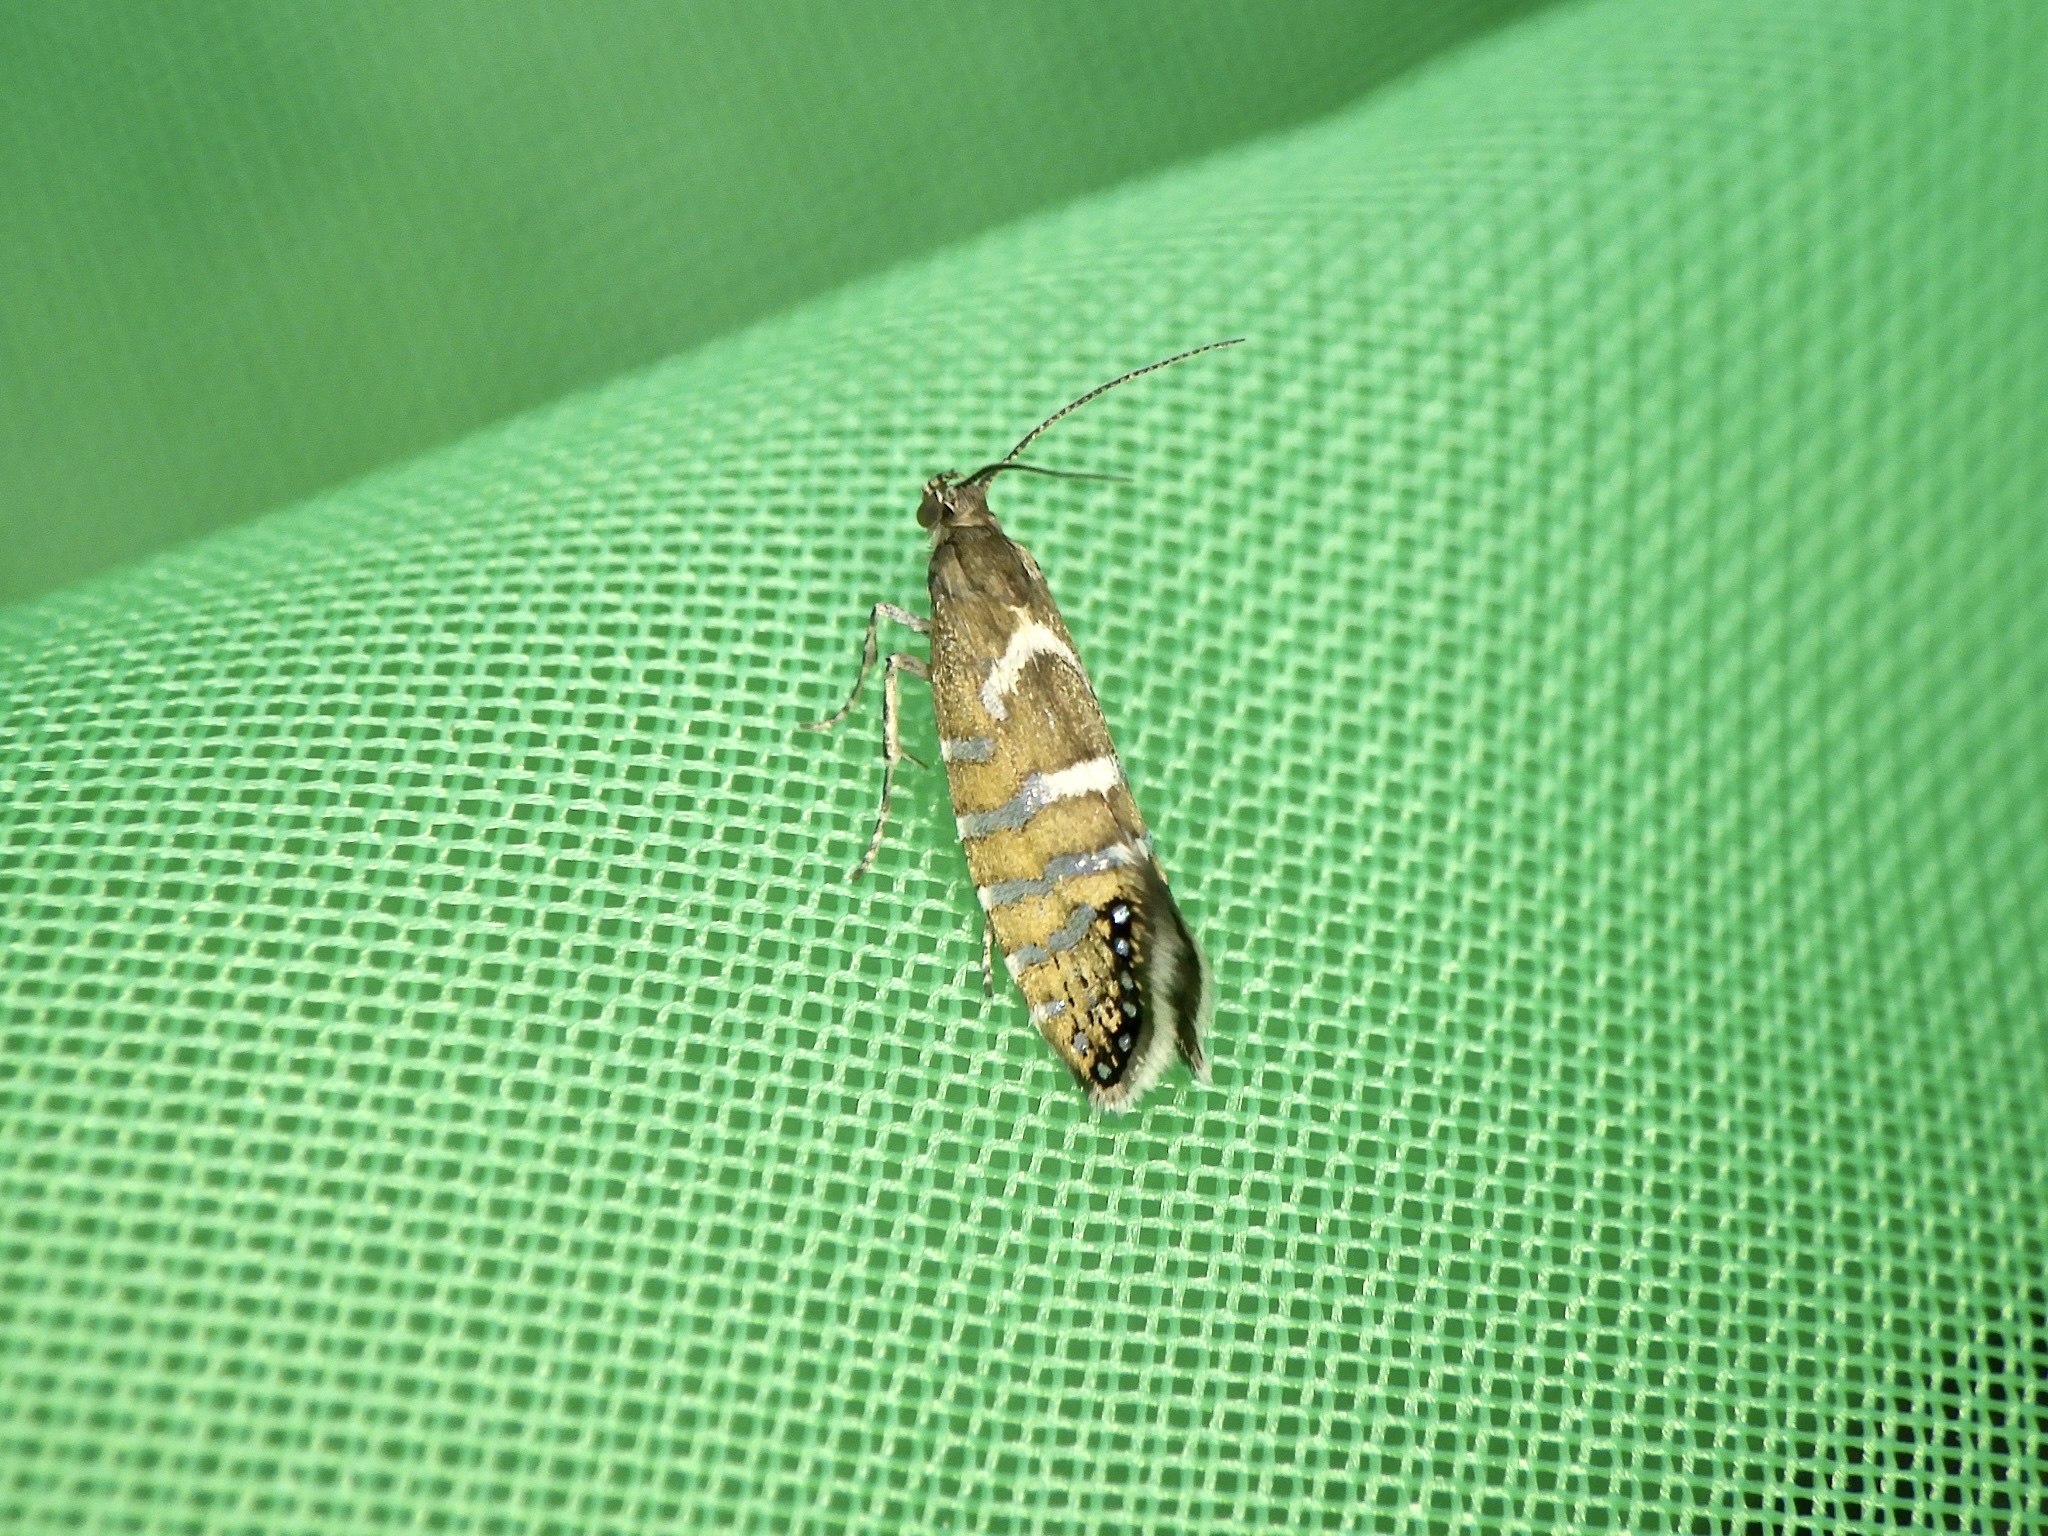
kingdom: Animalia
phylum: Arthropoda
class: Insecta
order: Lepidoptera
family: Glyphipterigidae
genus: Glyphipterix
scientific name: Glyphipterix nigromarginata
